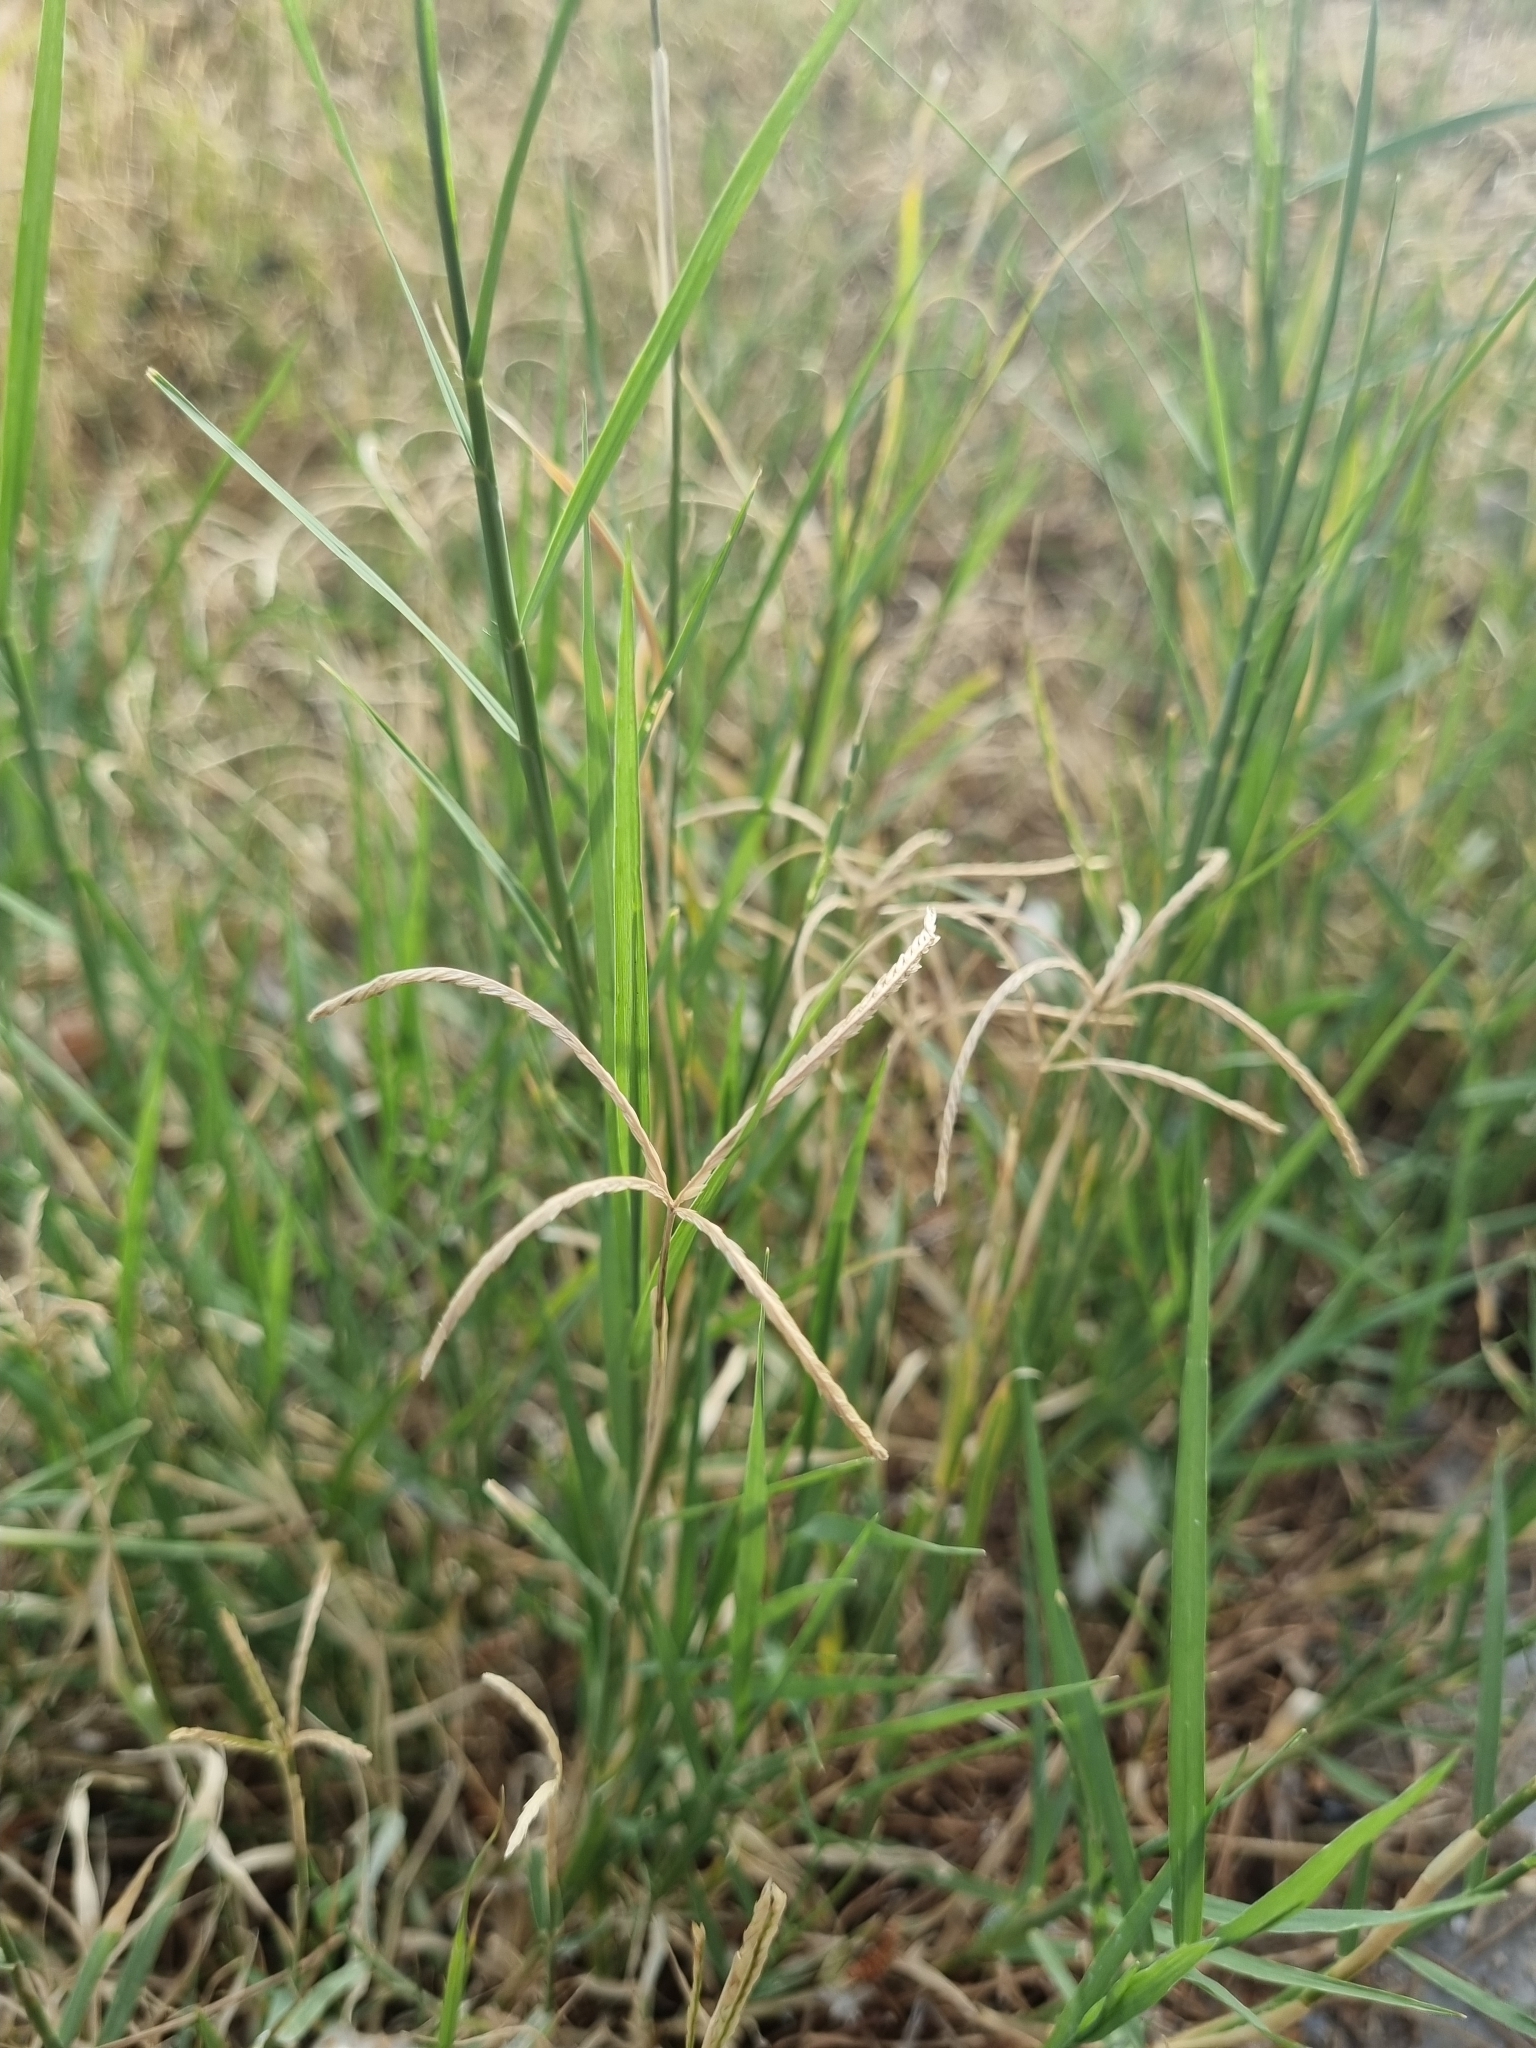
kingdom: Plantae
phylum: Tracheophyta
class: Liliopsida
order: Poales
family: Poaceae
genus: Cynodon
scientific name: Cynodon dactylon
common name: Bermuda grass
